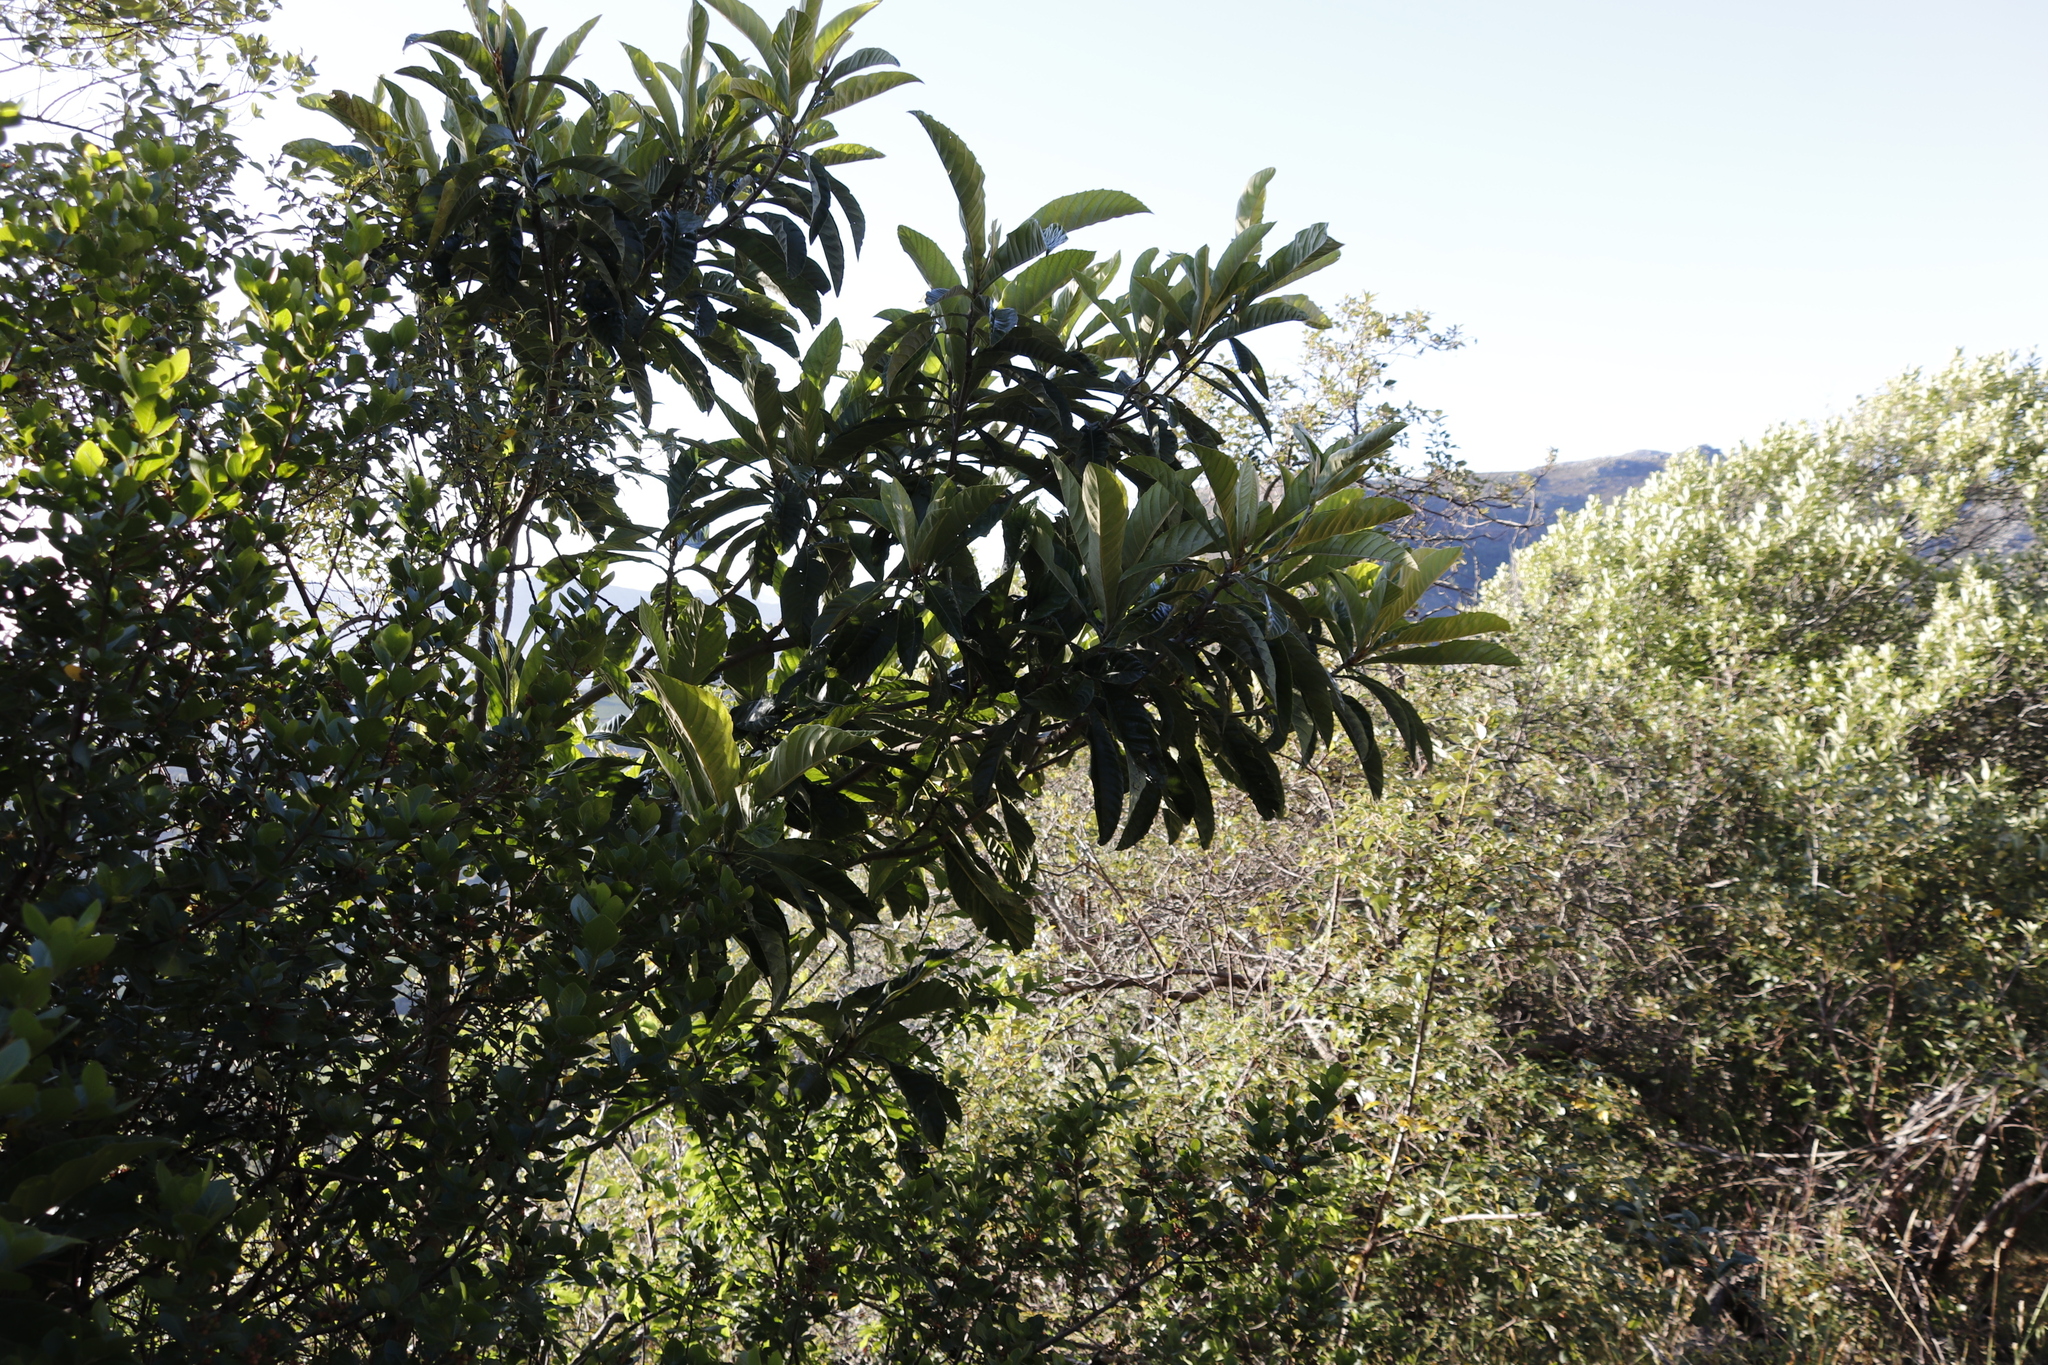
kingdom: Plantae
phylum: Tracheophyta
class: Magnoliopsida
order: Rosales
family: Rosaceae
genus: Rhaphiolepis
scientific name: Rhaphiolepis bibas
